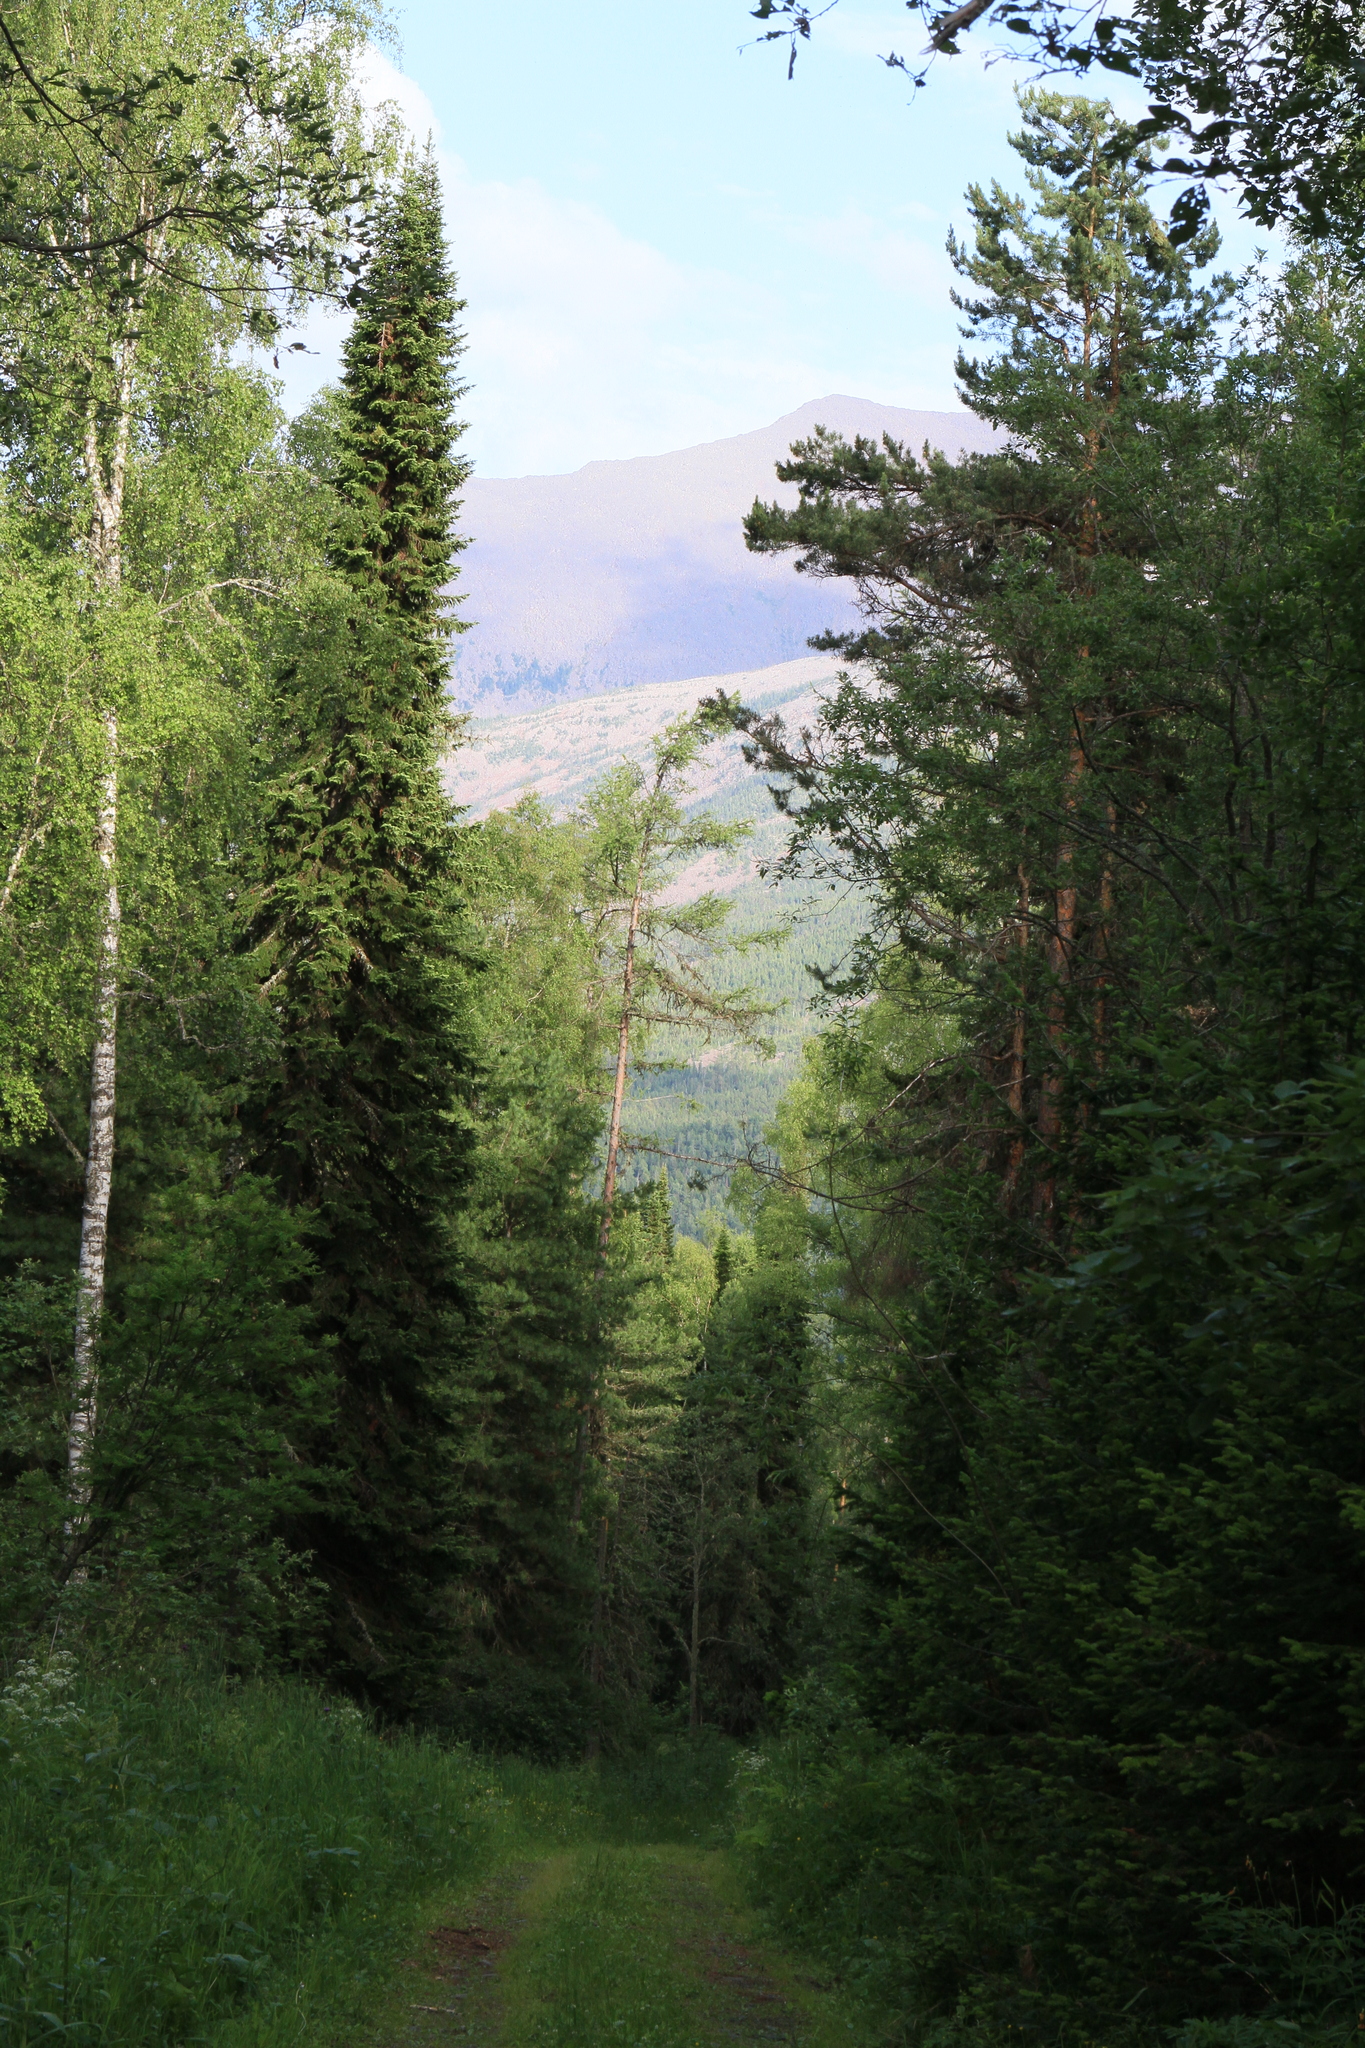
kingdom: Plantae
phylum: Tracheophyta
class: Pinopsida
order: Pinales
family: Pinaceae
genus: Pinus
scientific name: Pinus sibirica
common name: Siberian pine
